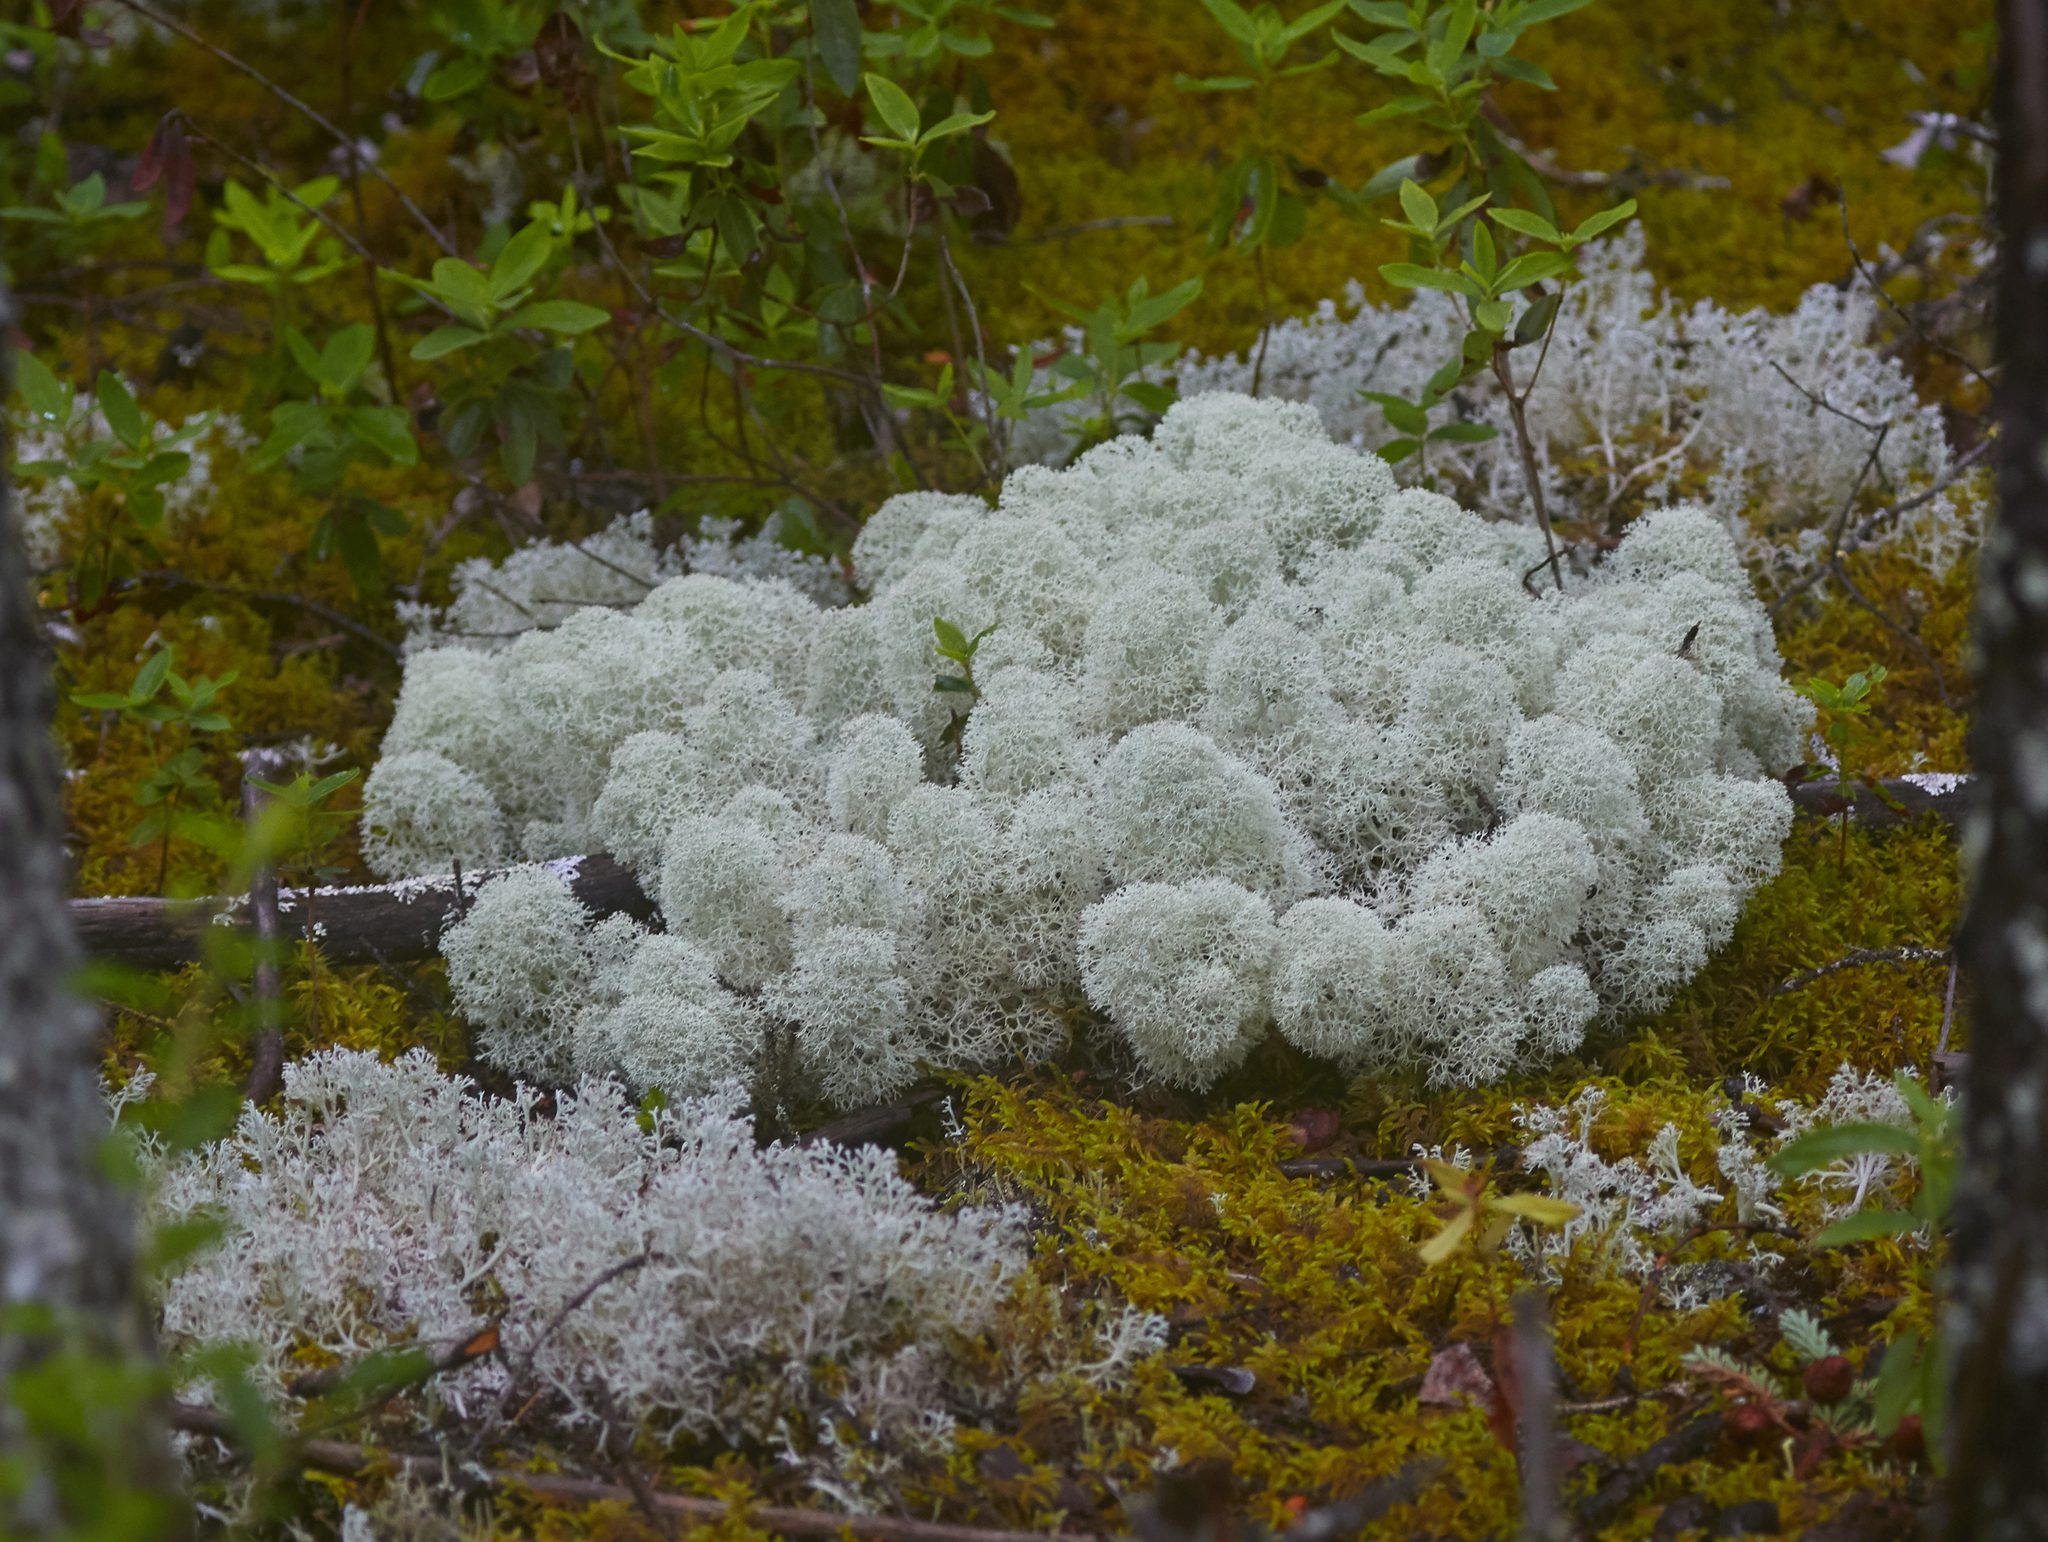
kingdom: Fungi
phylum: Ascomycota
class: Lecanoromycetes
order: Lecanorales
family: Cladoniaceae
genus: Cladonia
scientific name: Cladonia stellaris
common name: Star-tipped reindeer lichen
